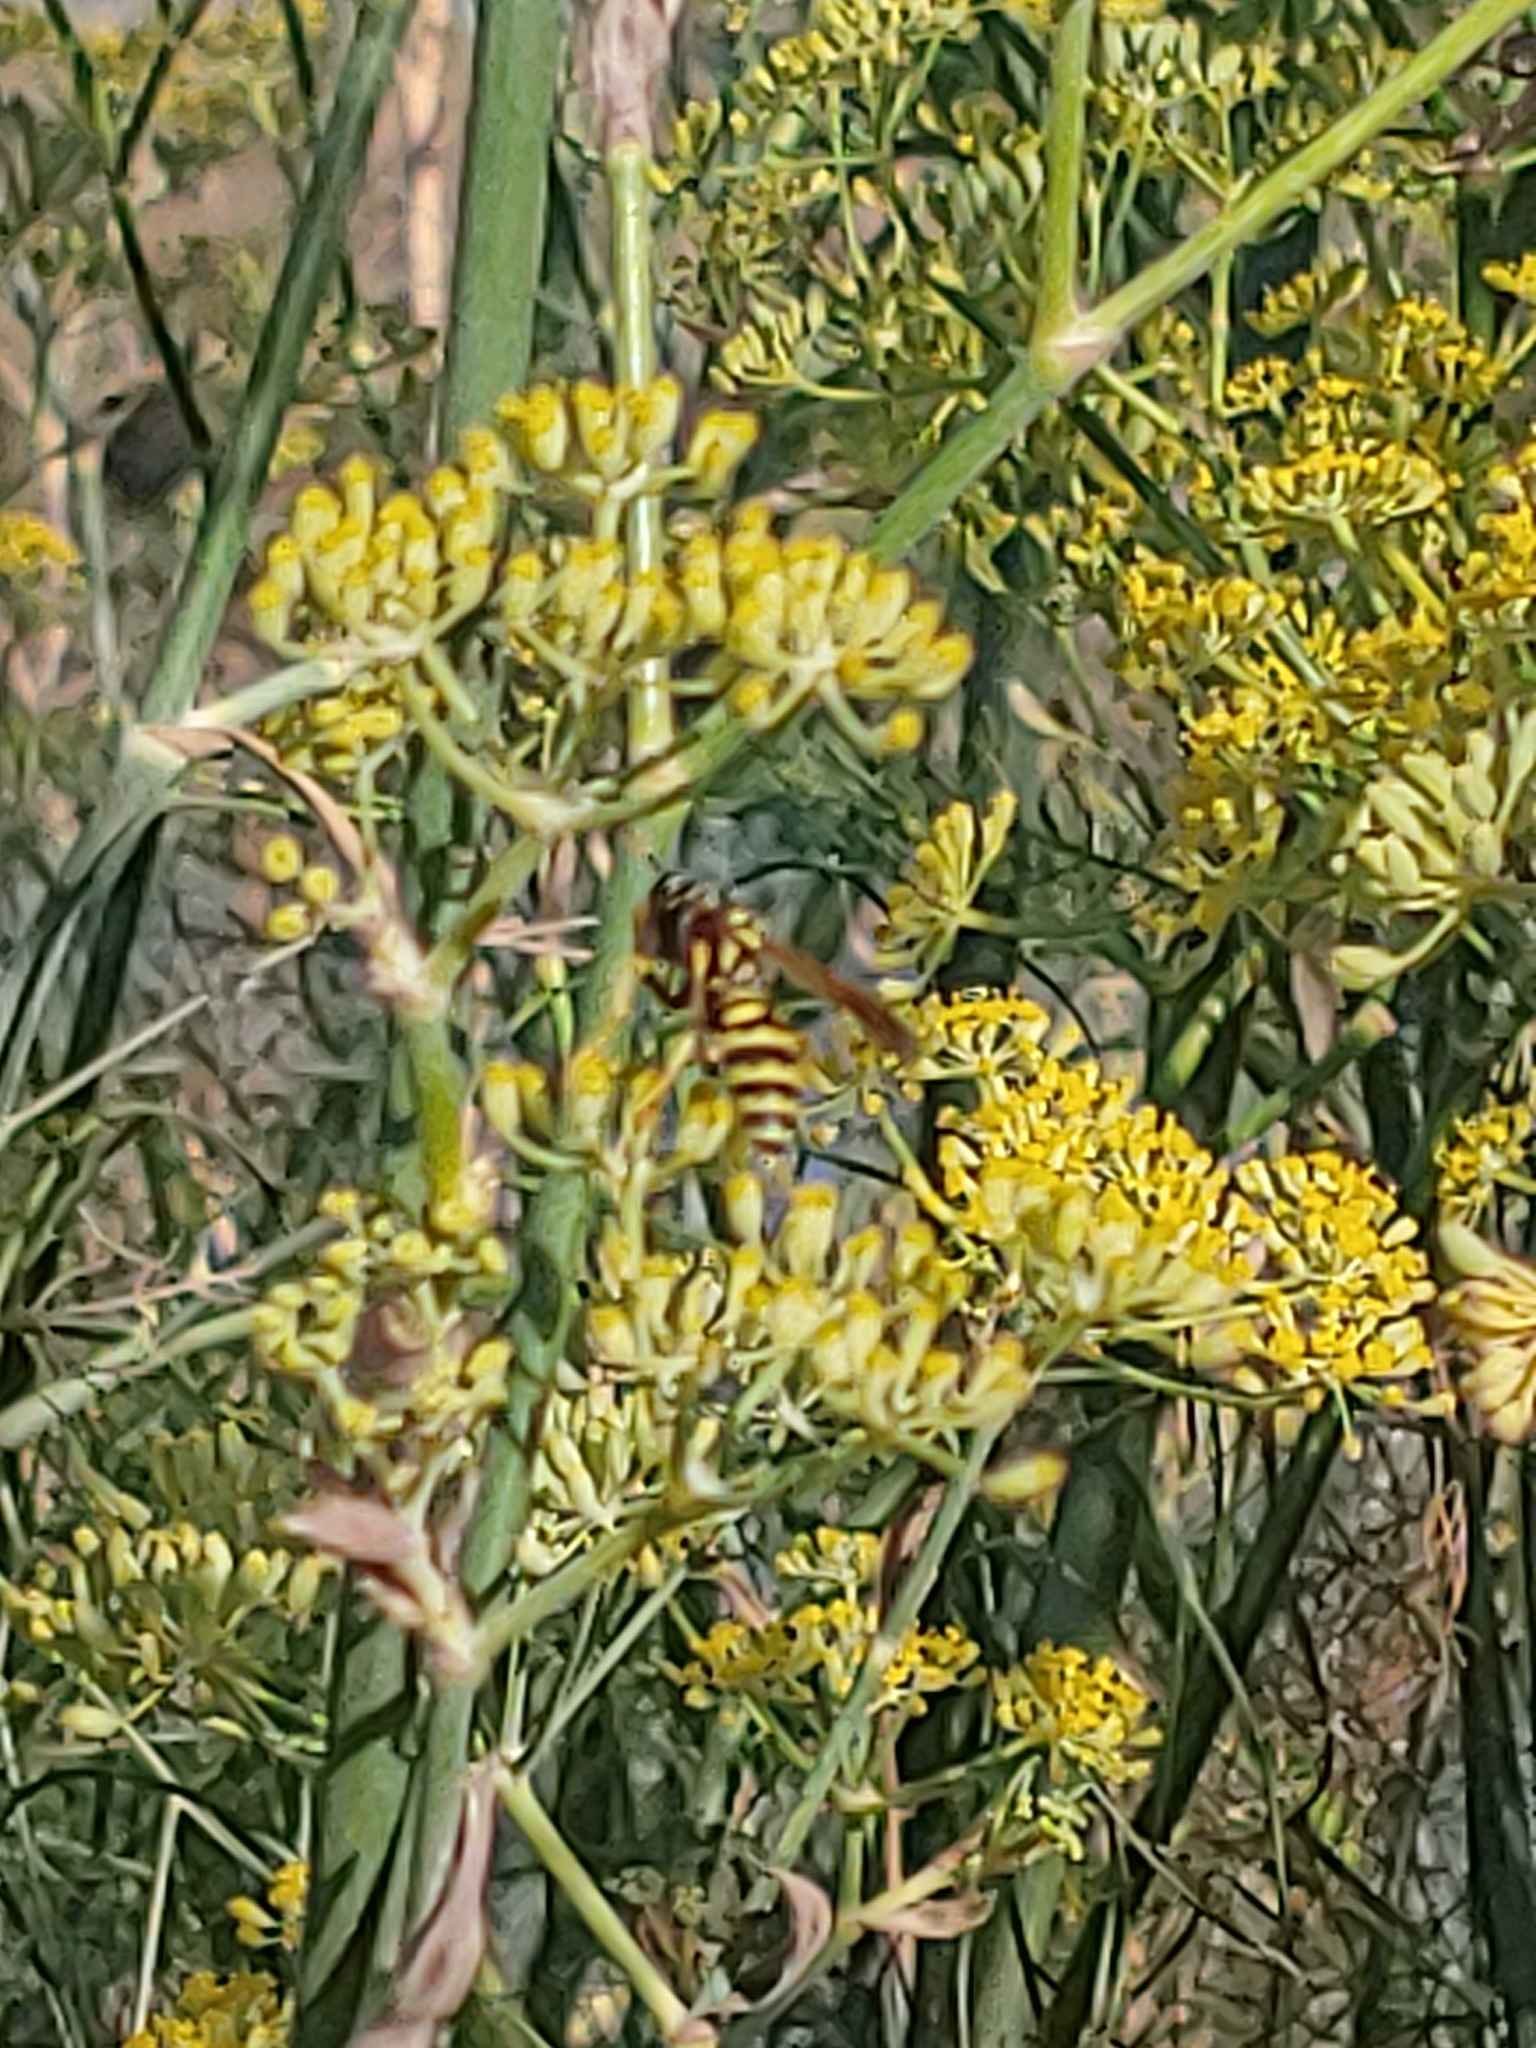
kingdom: Animalia
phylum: Arthropoda
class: Insecta
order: Hymenoptera
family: Eumenidae
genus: Polistes
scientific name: Polistes dominula
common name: Paper wasp
